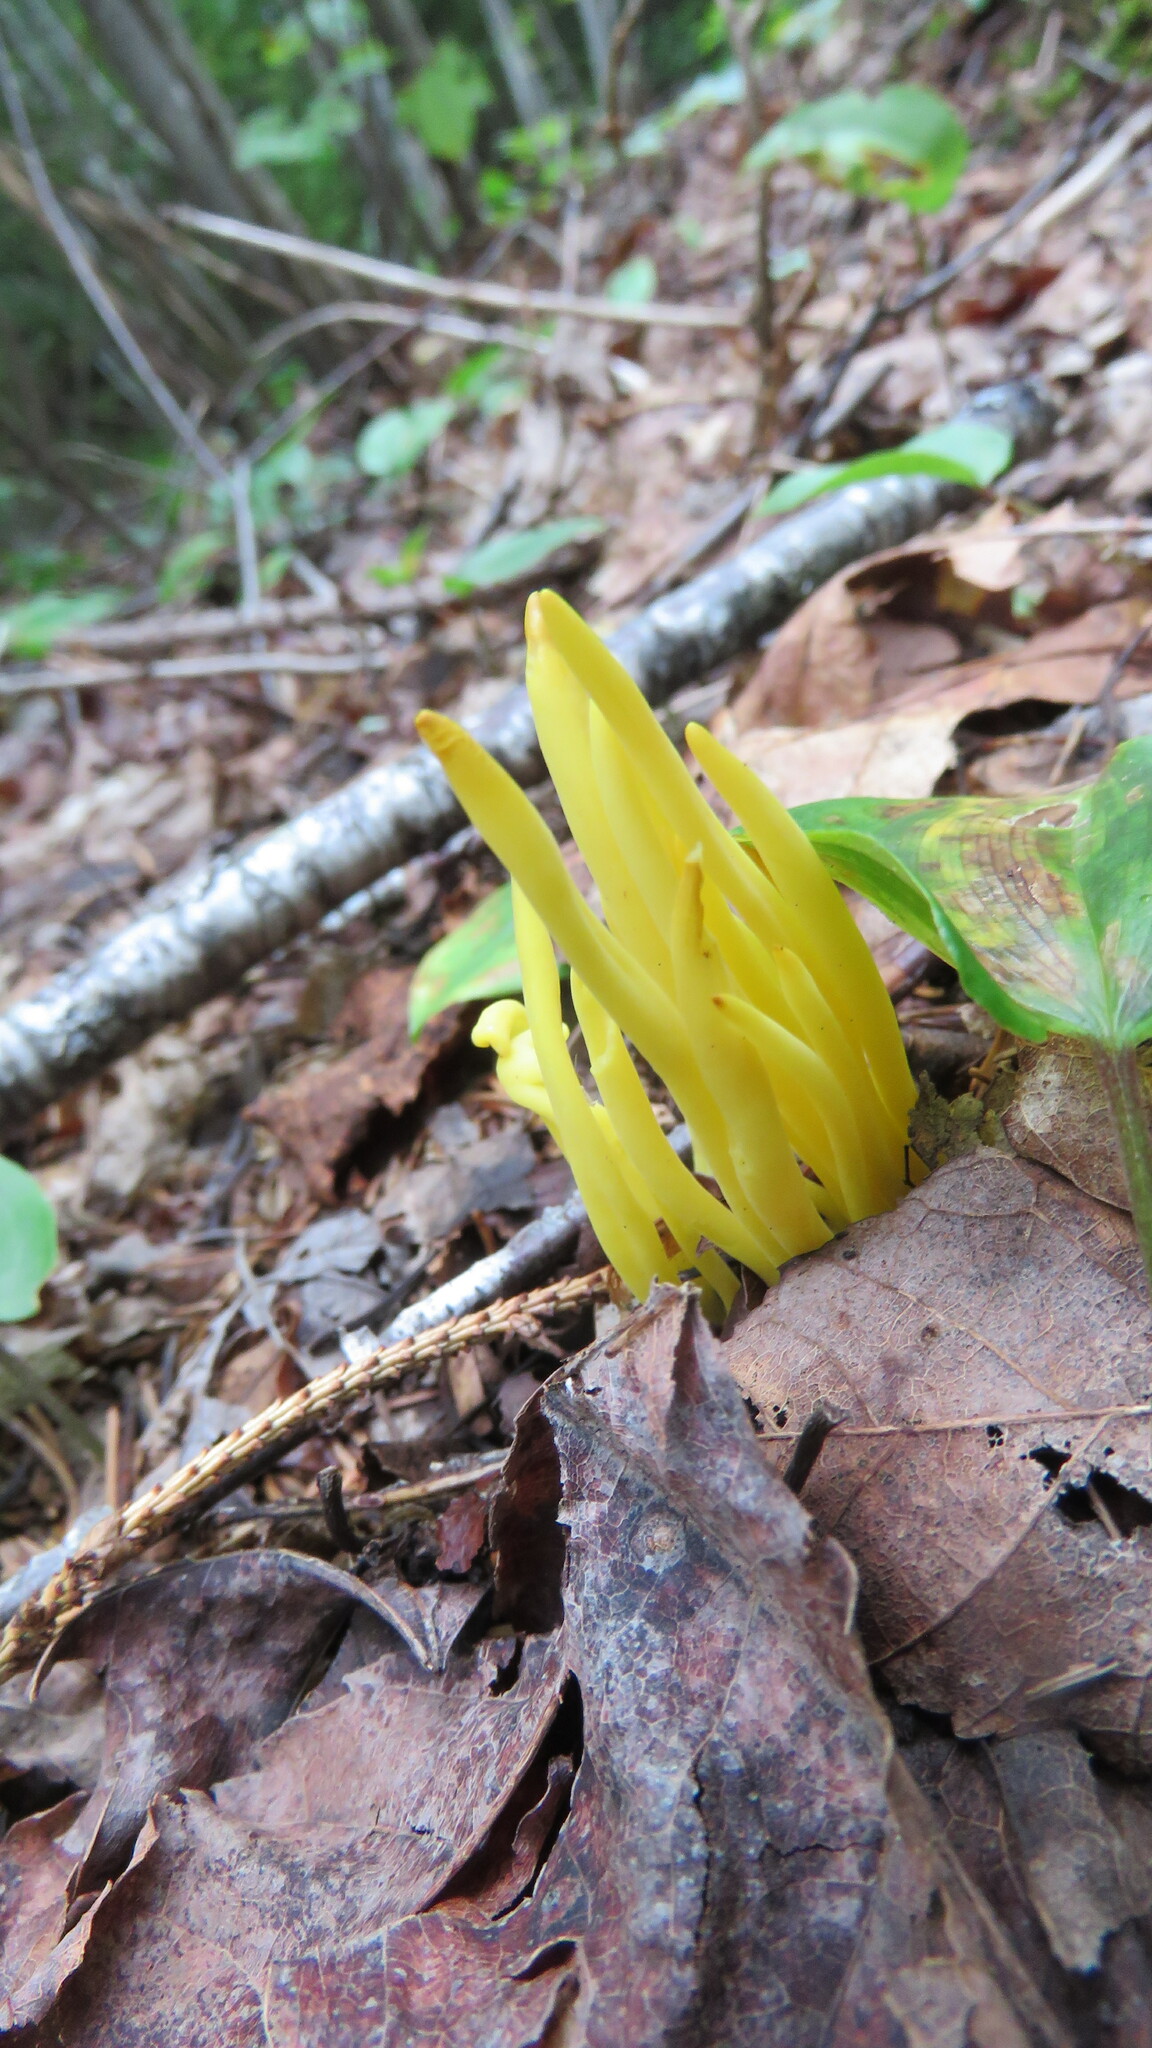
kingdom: Fungi
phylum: Basidiomycota
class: Agaricomycetes
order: Agaricales
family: Clavariaceae
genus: Clavulinopsis
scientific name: Clavulinopsis fusiformis
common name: Golden spindles
